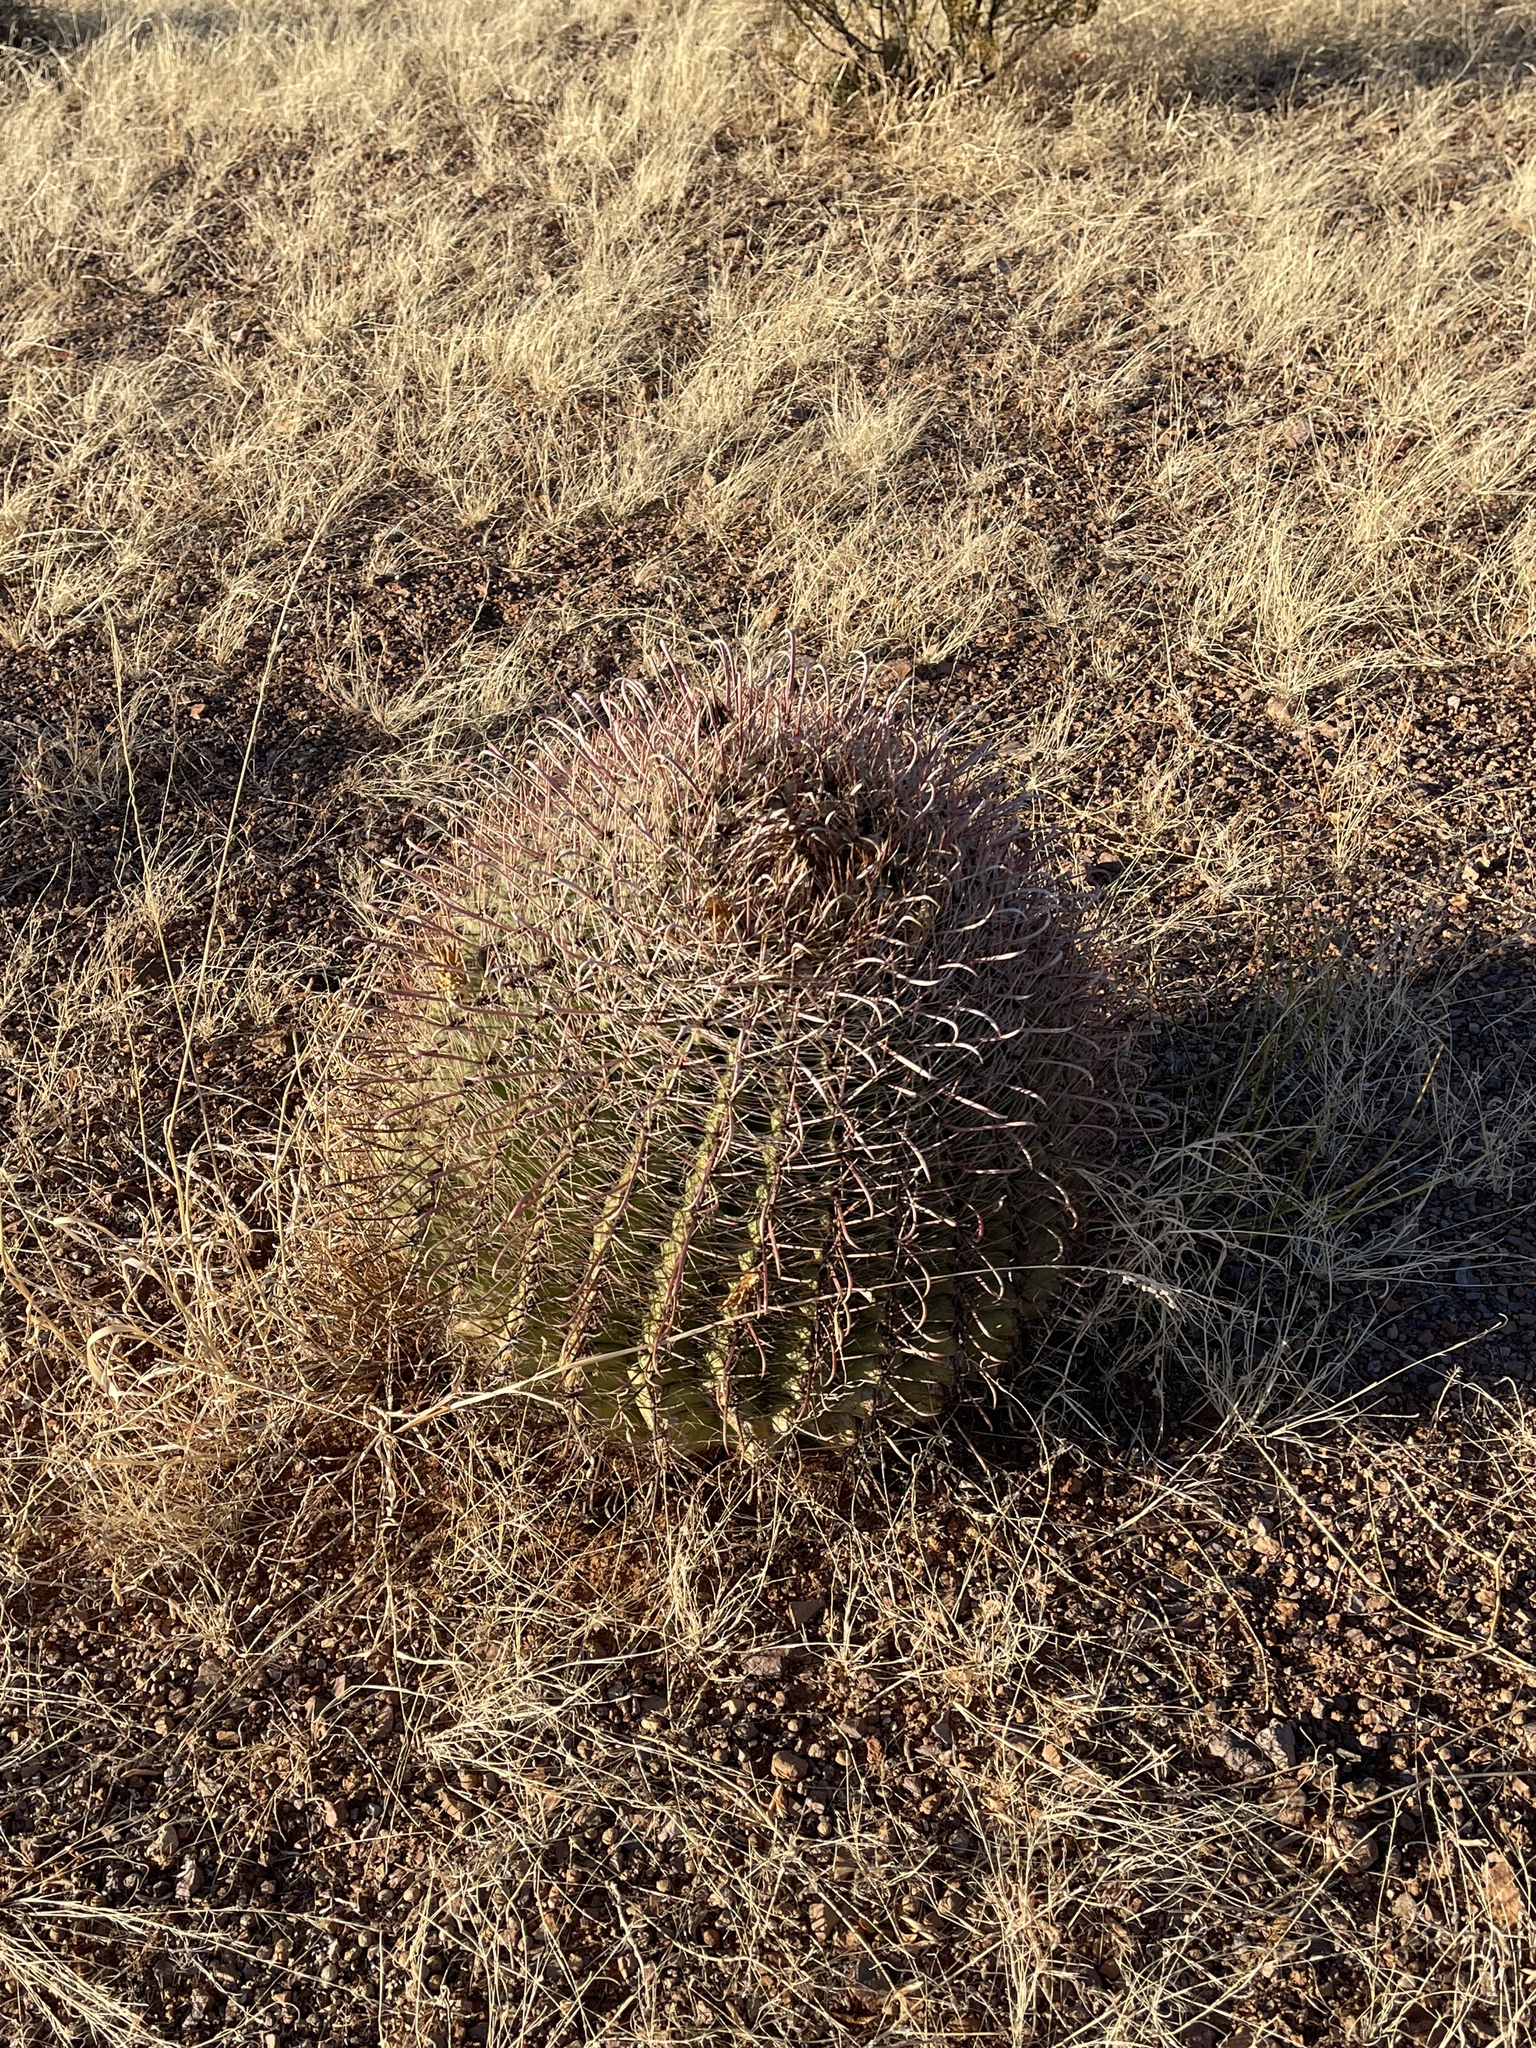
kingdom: Plantae
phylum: Tracheophyta
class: Magnoliopsida
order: Caryophyllales
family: Cactaceae
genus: Ferocactus
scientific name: Ferocactus wislizeni
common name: Candy barrel cactus
